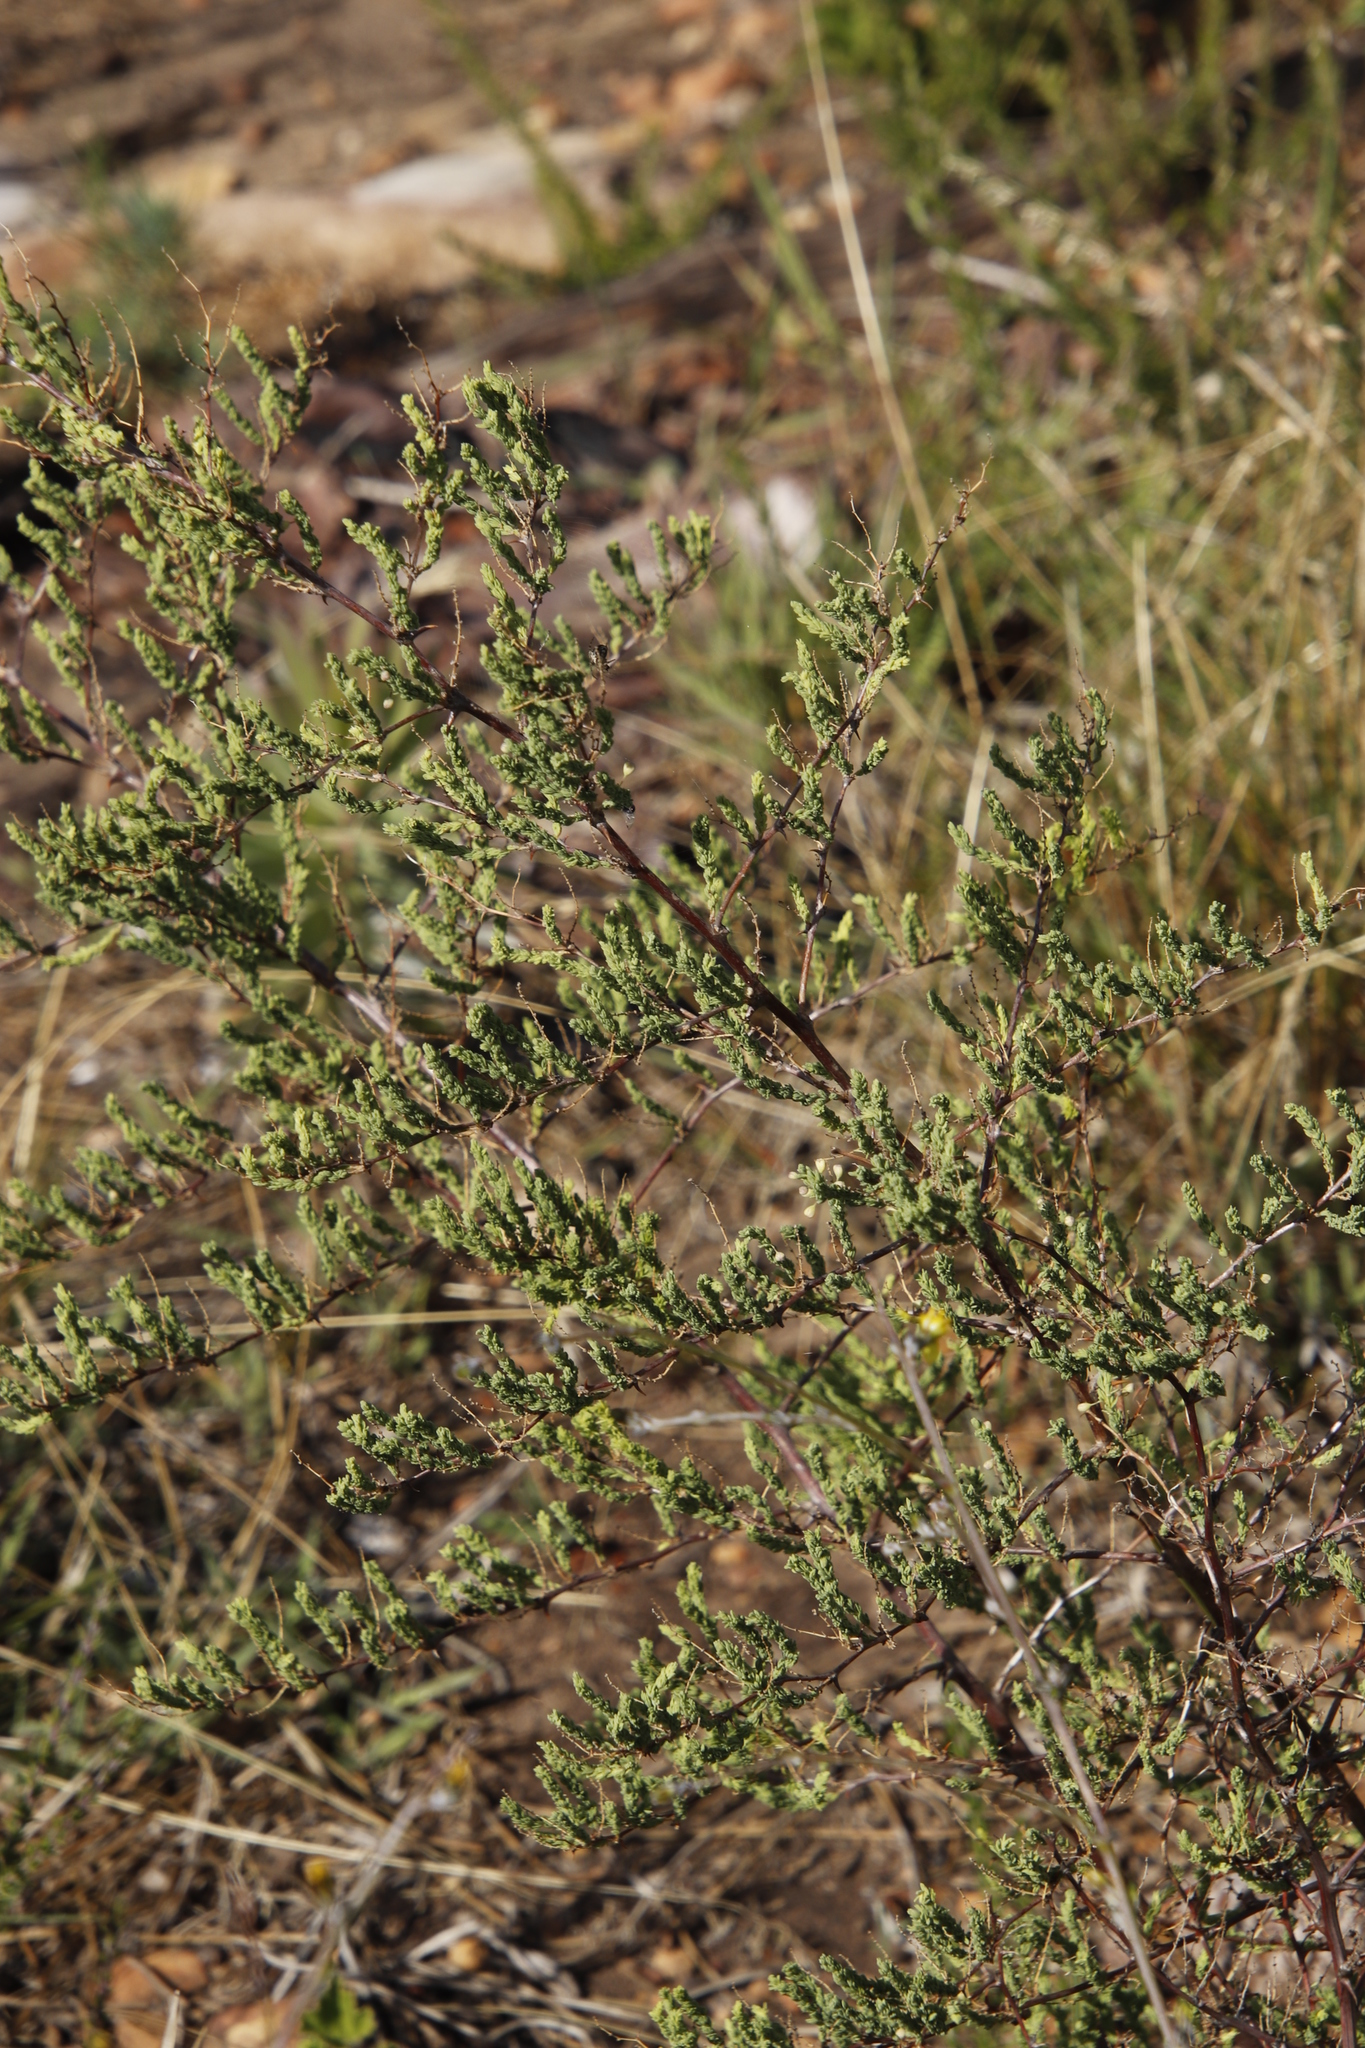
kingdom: Plantae
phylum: Tracheophyta
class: Liliopsida
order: Asparagales
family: Asparagaceae
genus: Asparagus
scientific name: Asparagus rubicundus
